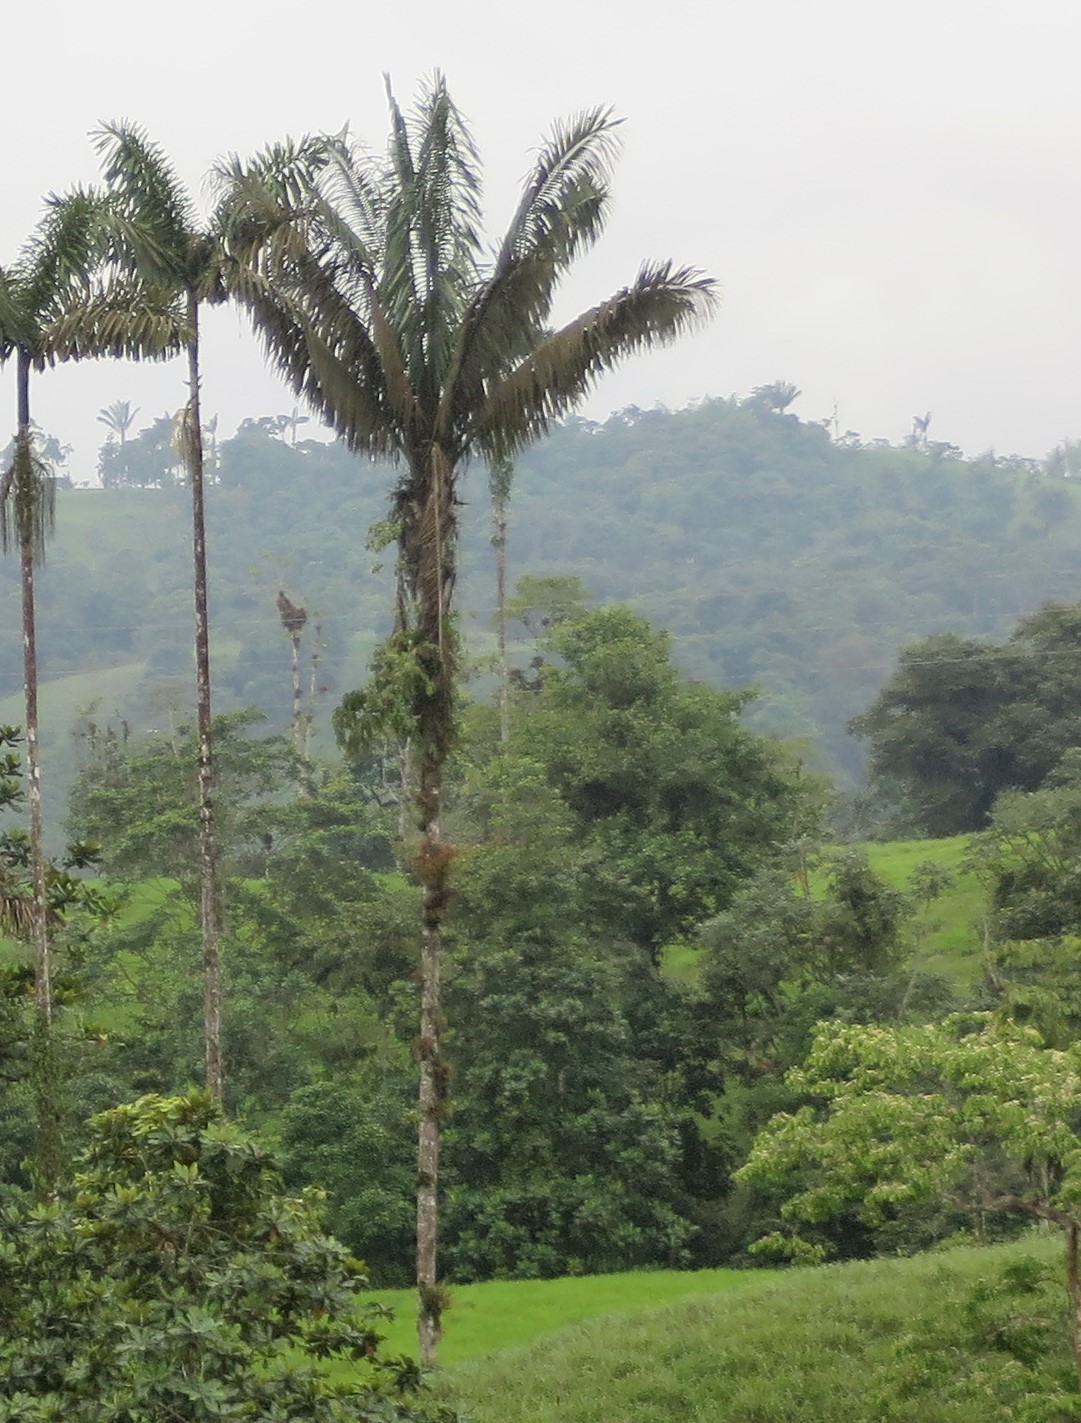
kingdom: Plantae
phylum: Tracheophyta
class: Liliopsida
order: Arecales
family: Arecaceae
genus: Oenocarpus
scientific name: Oenocarpus bataua
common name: Bataua palm
